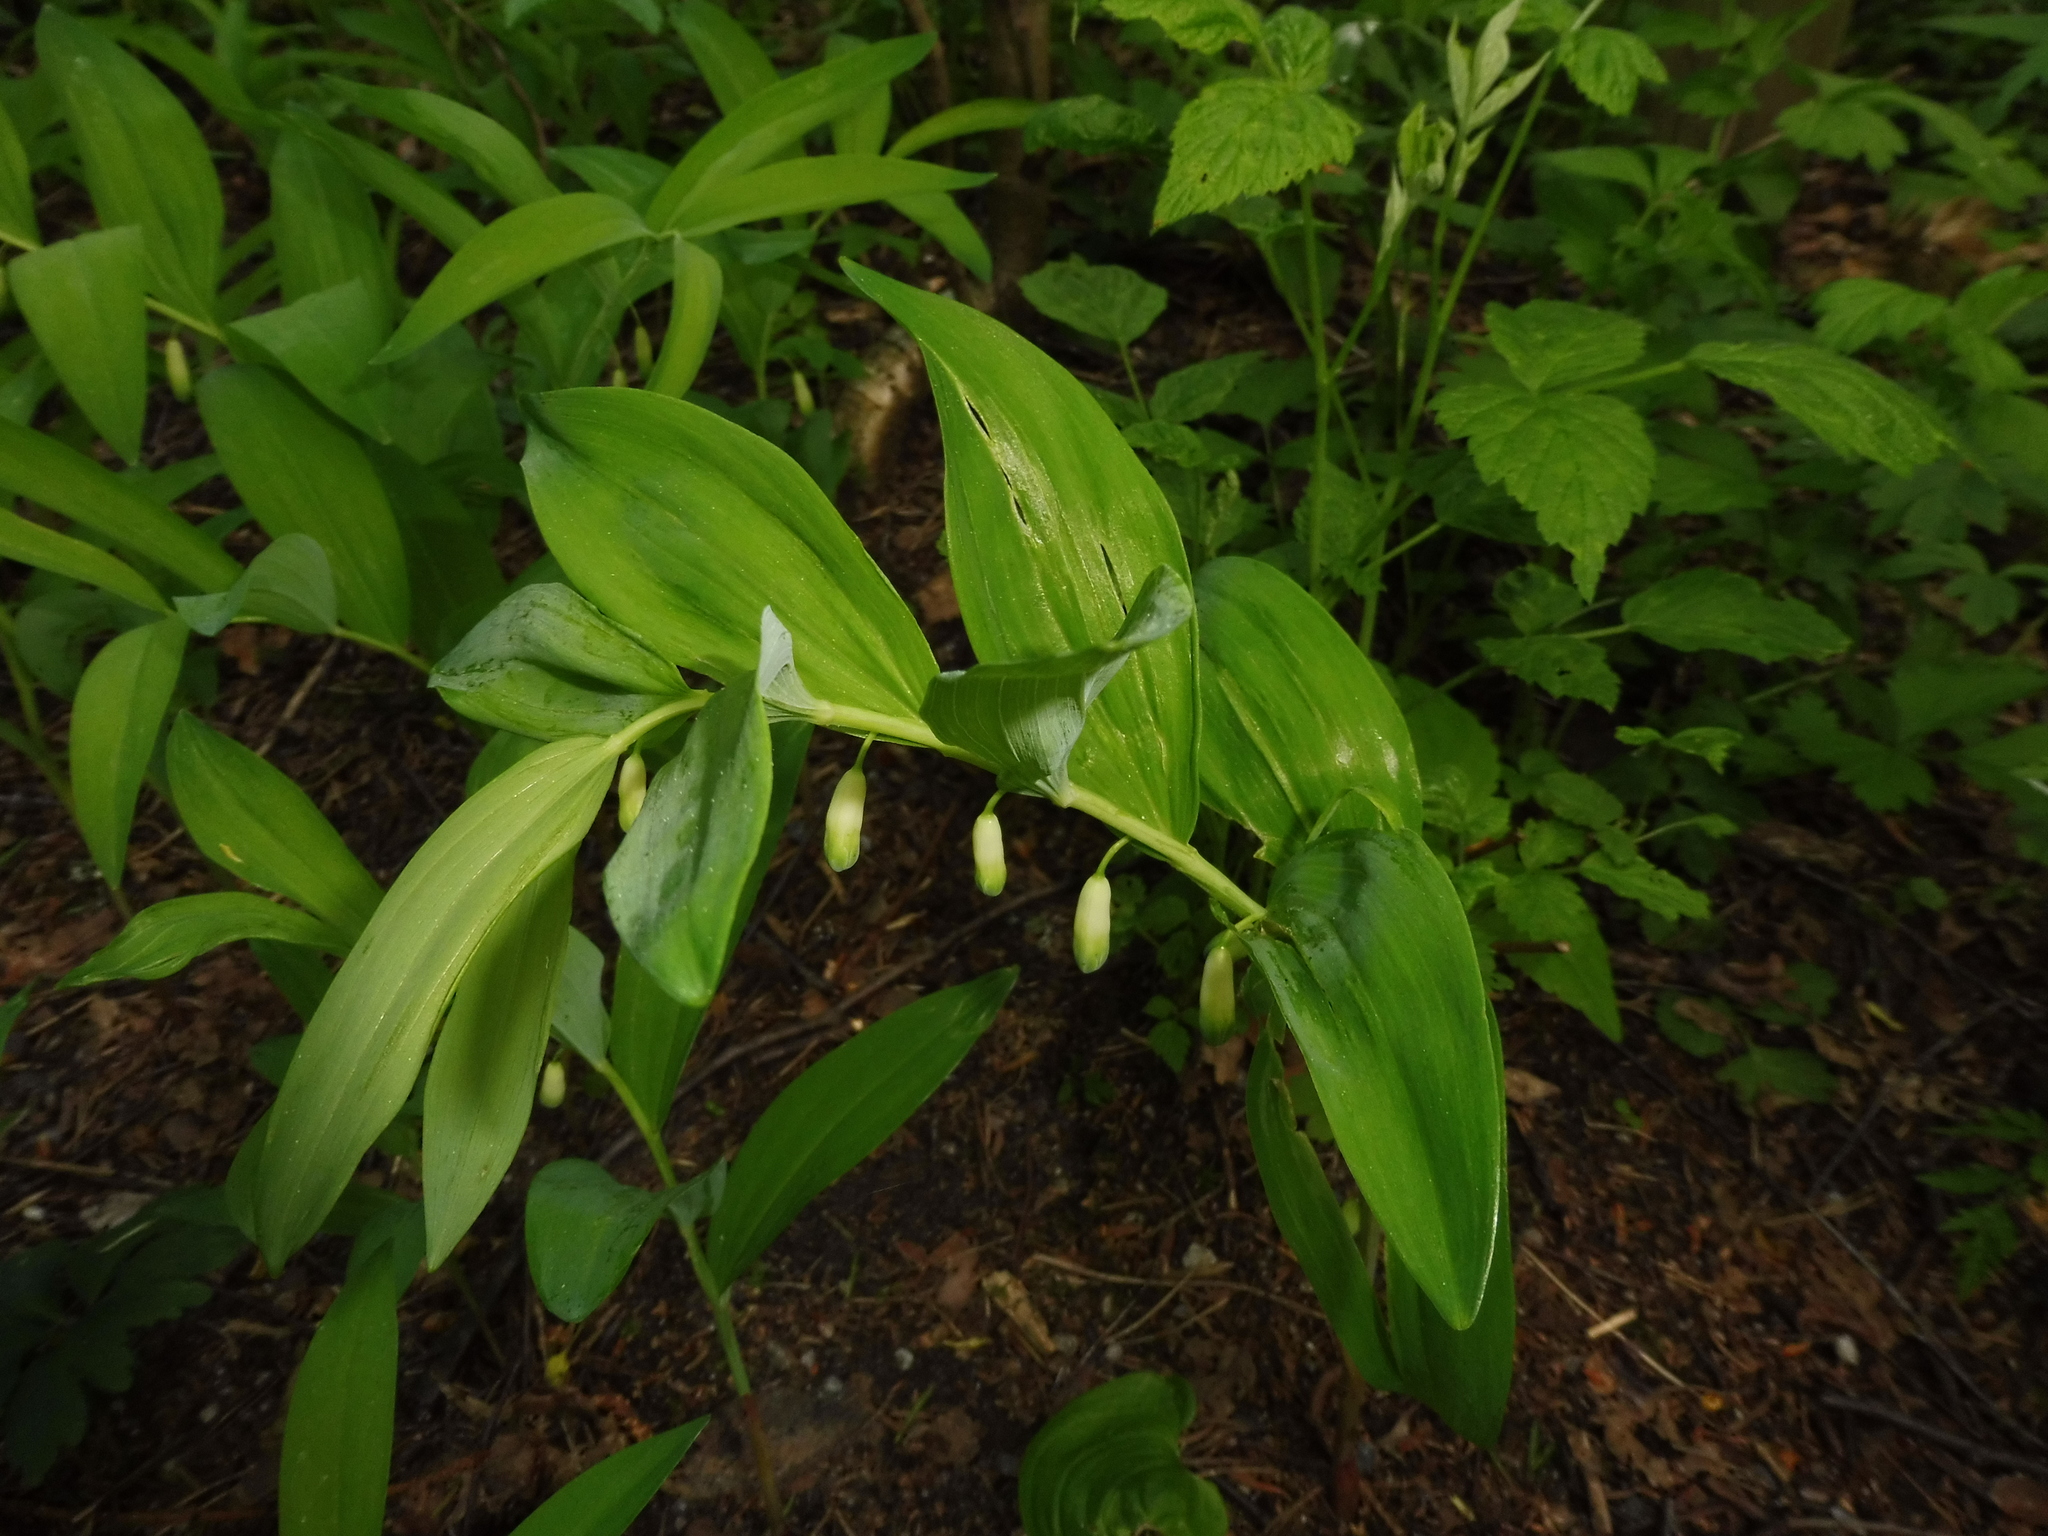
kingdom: Plantae
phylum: Tracheophyta
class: Liliopsida
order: Asparagales
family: Asparagaceae
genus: Polygonatum
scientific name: Polygonatum odoratum
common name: Angular solomon's-seal
